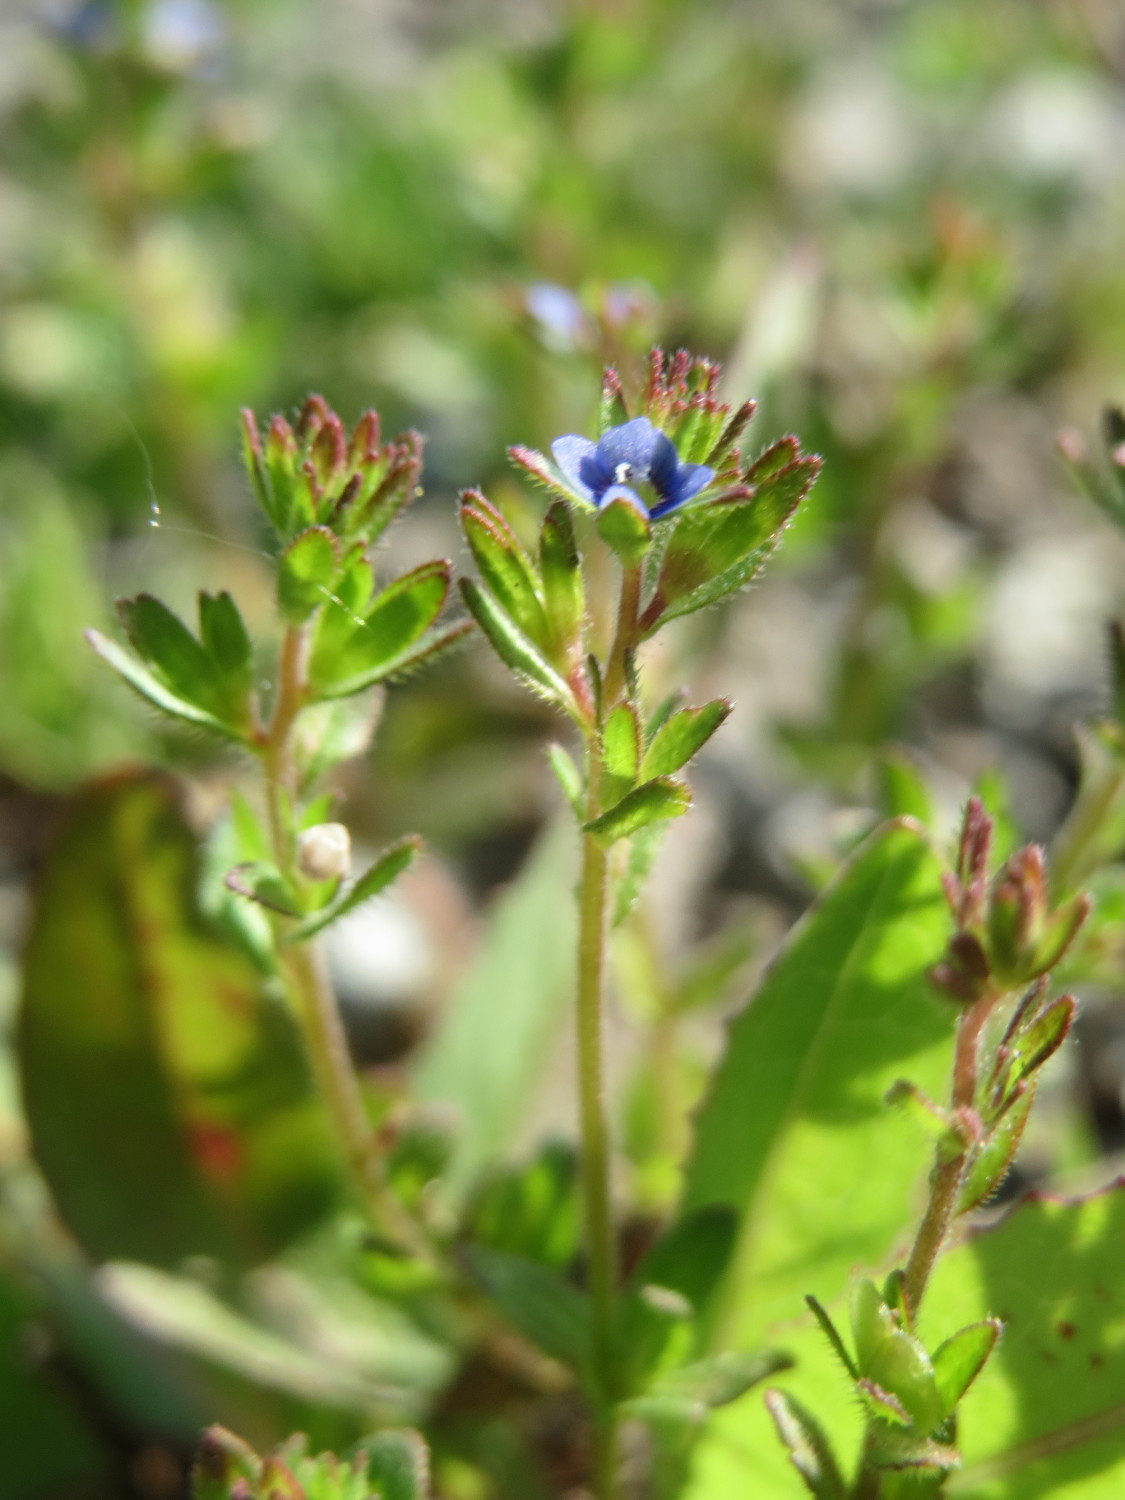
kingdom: Plantae
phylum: Tracheophyta
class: Magnoliopsida
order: Lamiales
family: Plantaginaceae
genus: Veronica
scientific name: Veronica arvensis
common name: Corn speedwell
